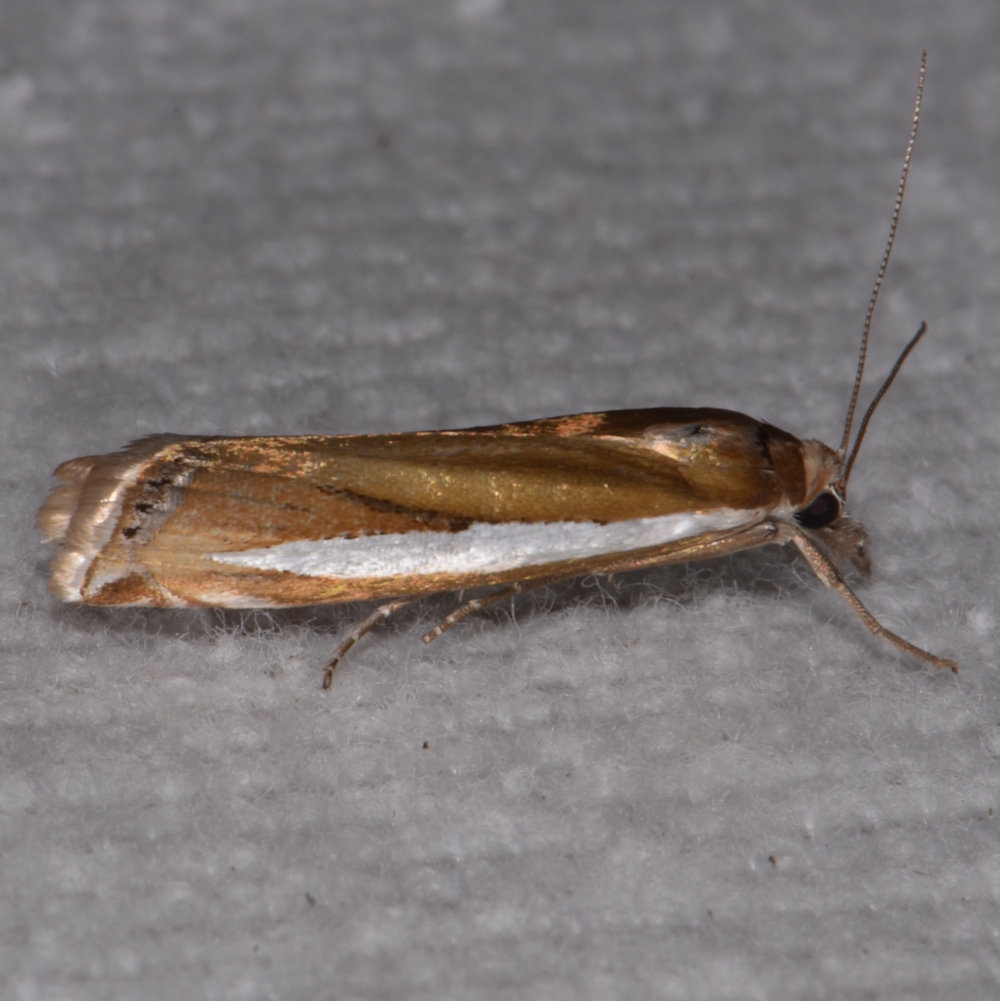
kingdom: Animalia
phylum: Arthropoda
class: Insecta
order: Lepidoptera
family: Crambidae
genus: Crambus
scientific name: Crambus praefectellus
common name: Common grass-veneer
